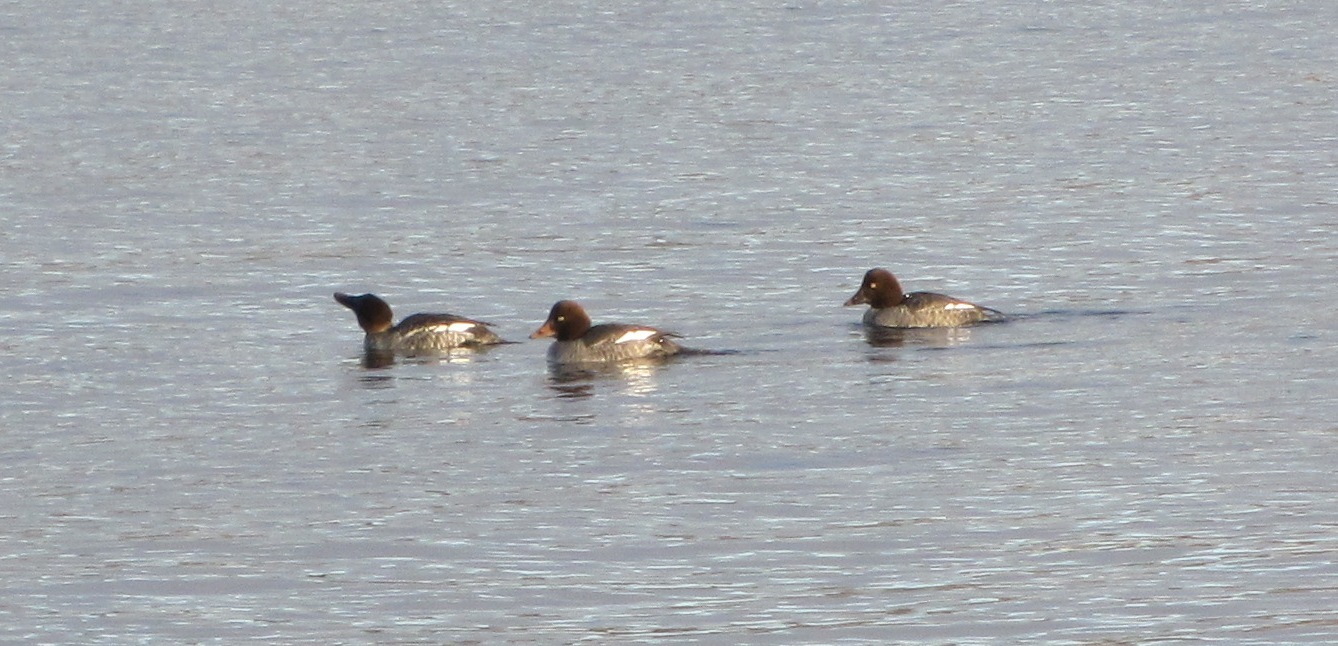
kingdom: Animalia
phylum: Chordata
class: Aves
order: Anseriformes
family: Anatidae
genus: Bucephala
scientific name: Bucephala clangula
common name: Common goldeneye
